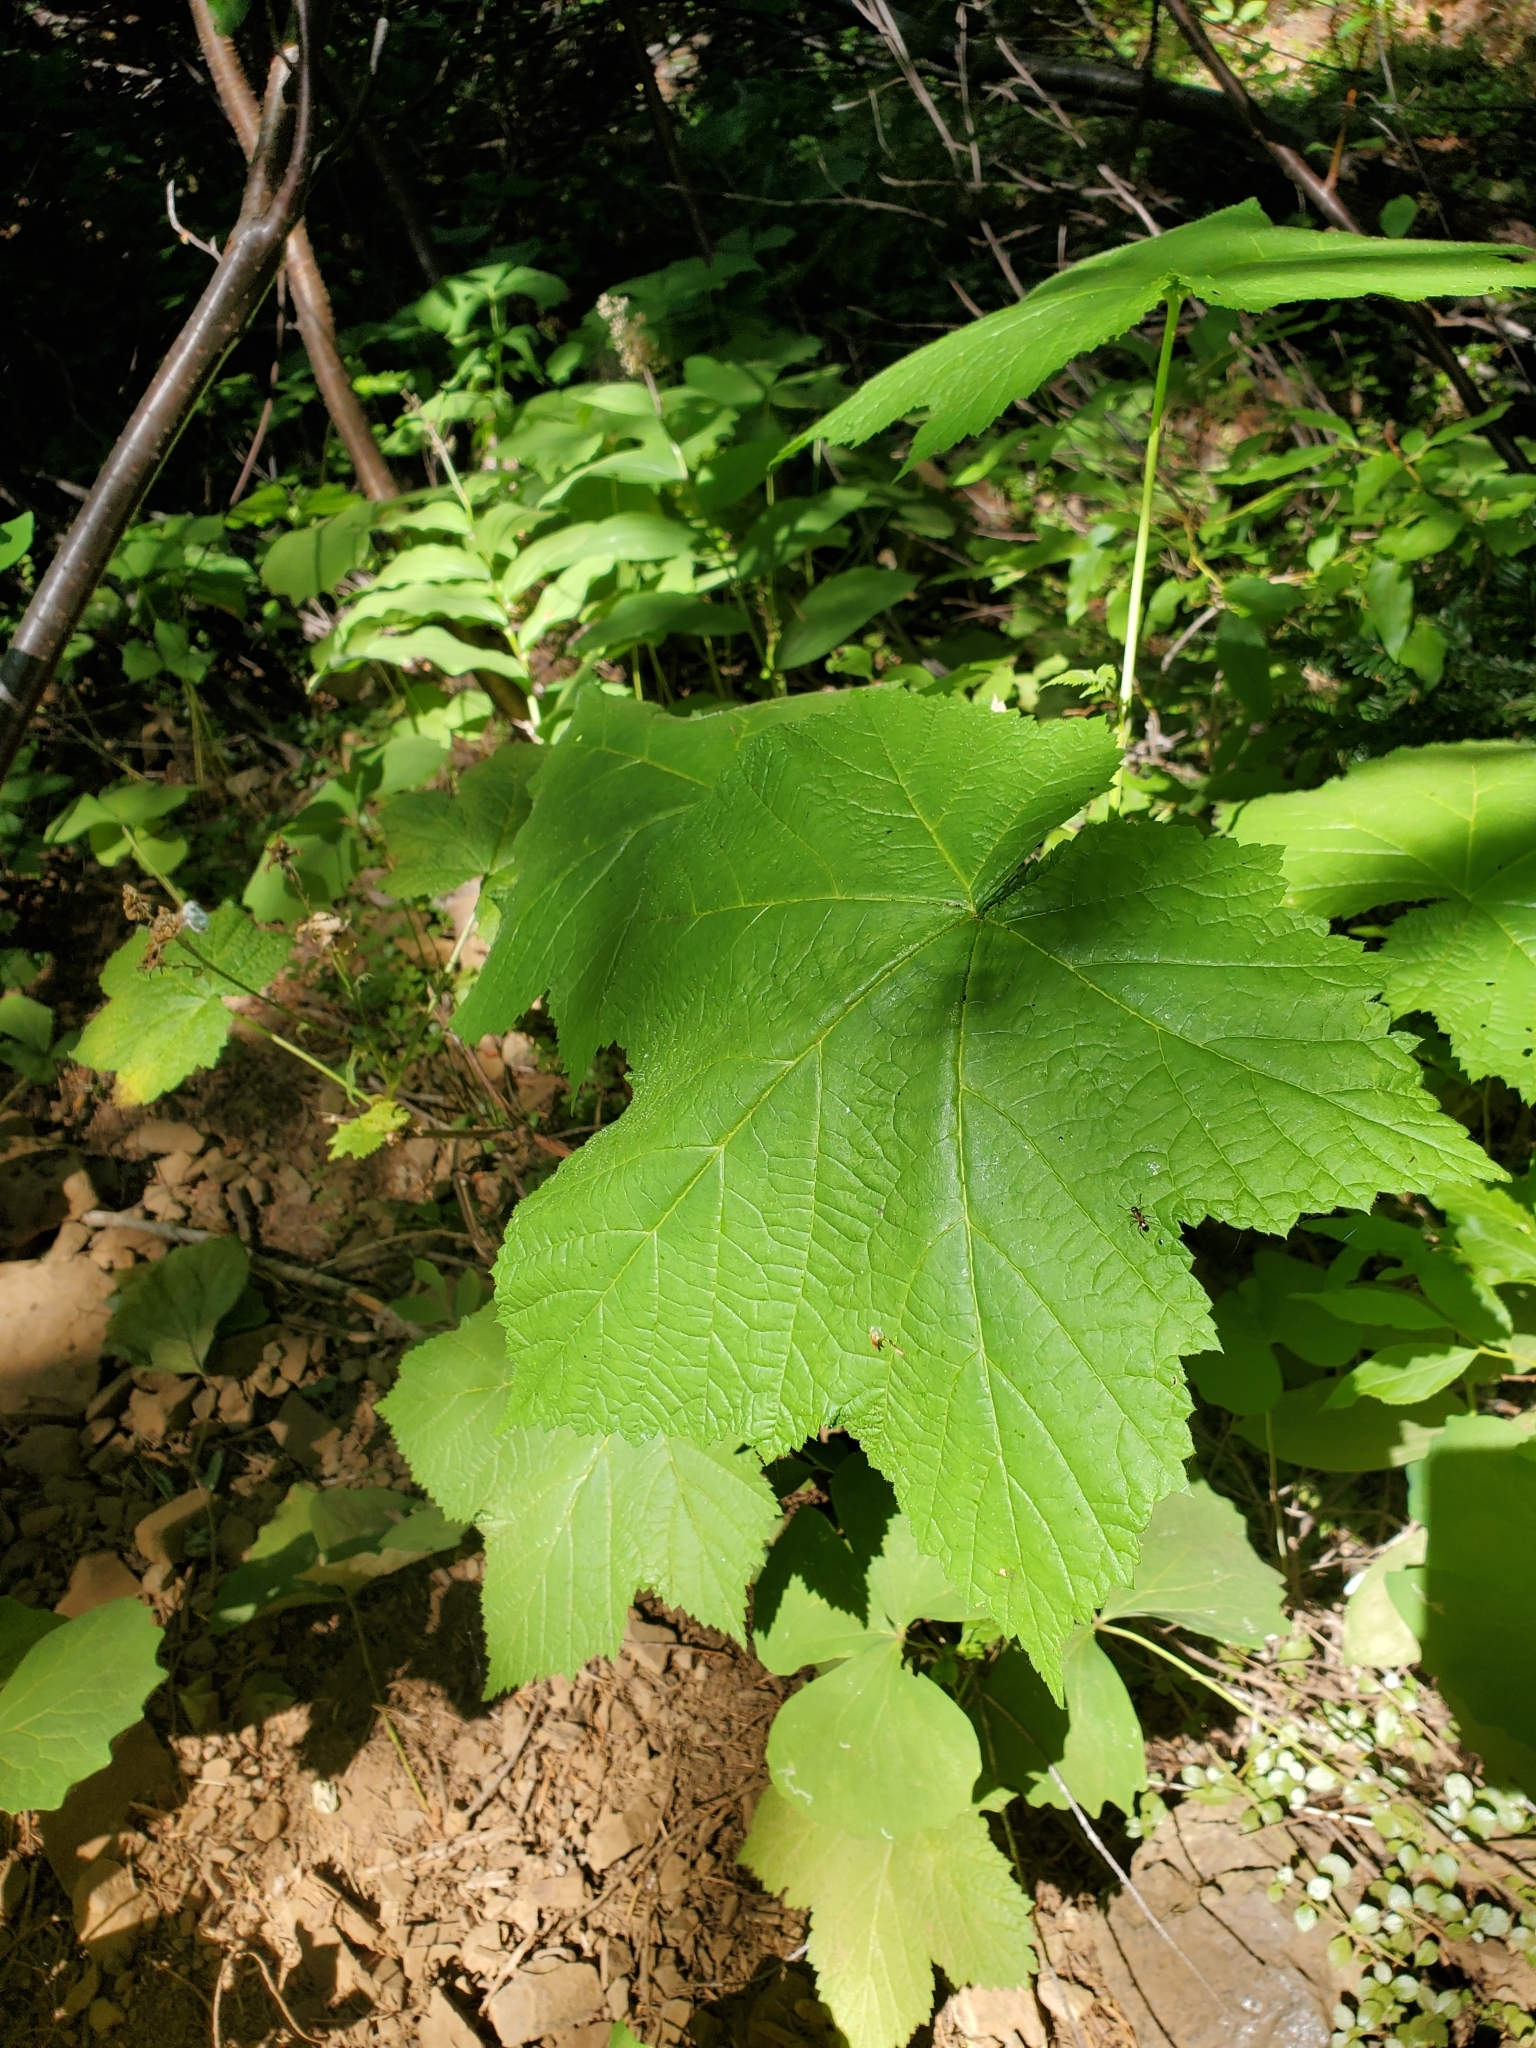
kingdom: Plantae
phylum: Tracheophyta
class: Magnoliopsida
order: Rosales
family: Rosaceae
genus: Rubus
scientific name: Rubus parviflorus
